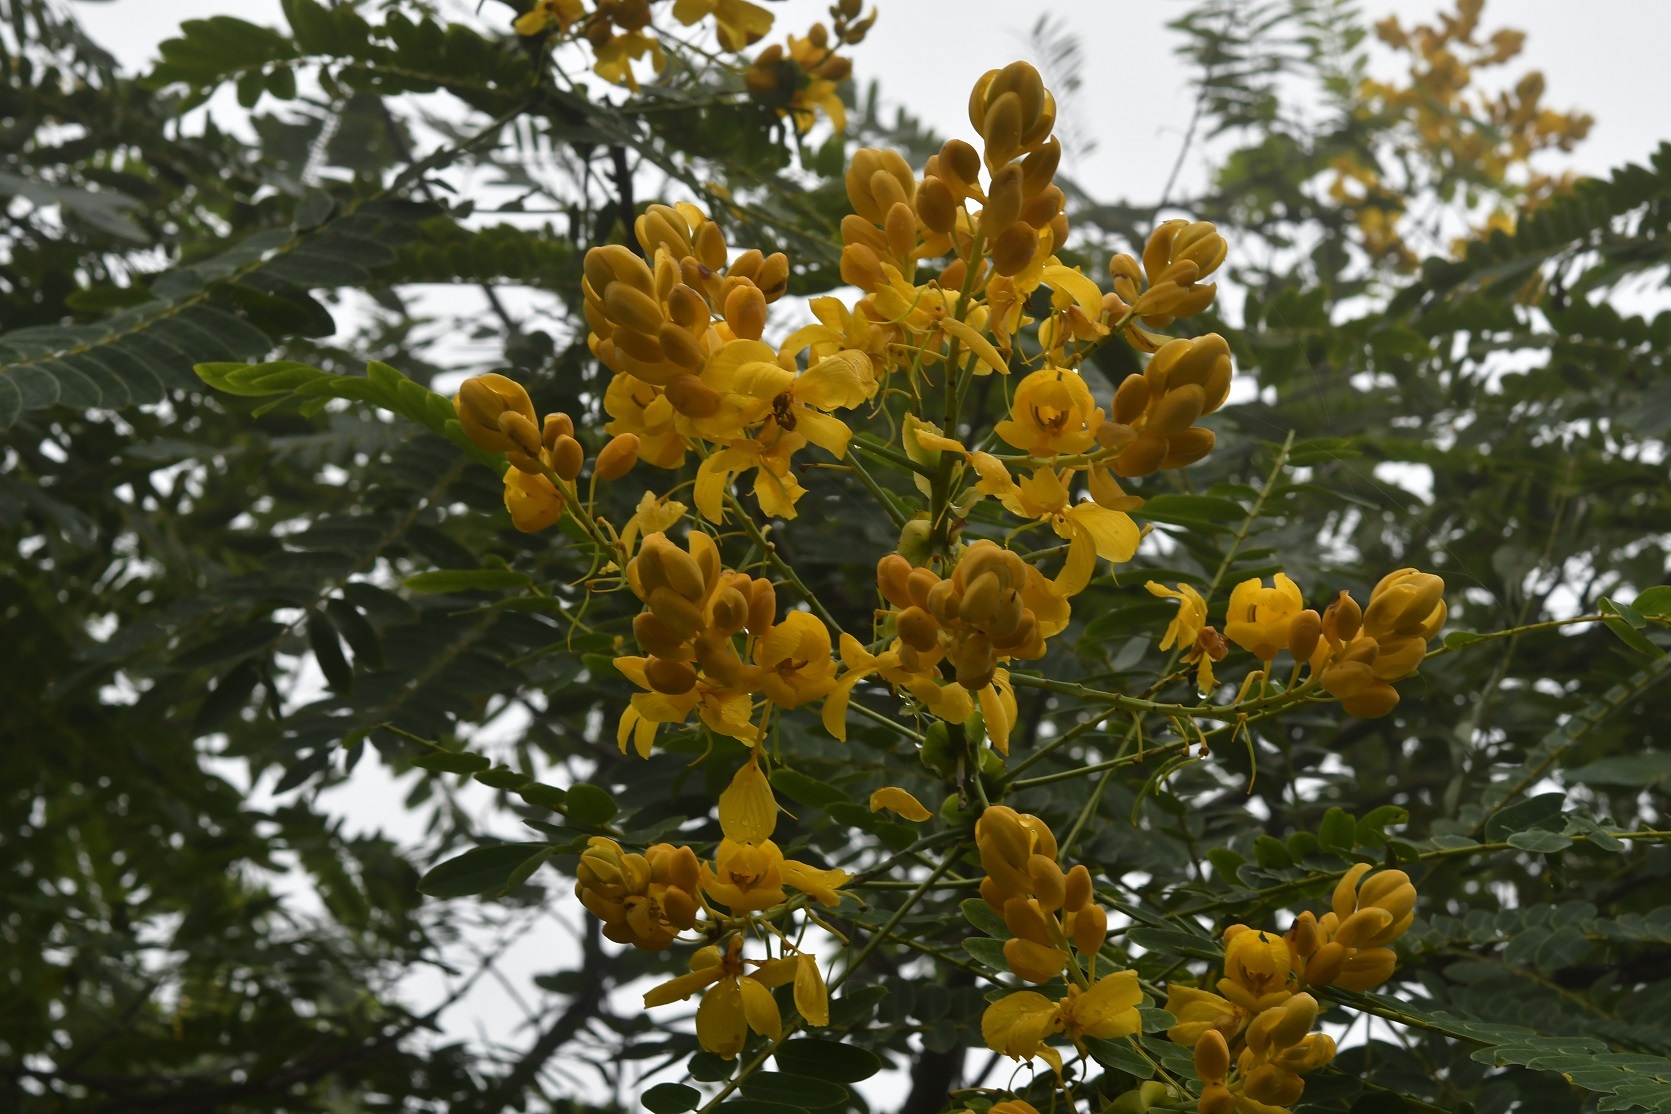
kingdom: Plantae
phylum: Tracheophyta
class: Magnoliopsida
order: Fabales
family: Fabaceae
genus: Senna
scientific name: Senna nicaraguensis
